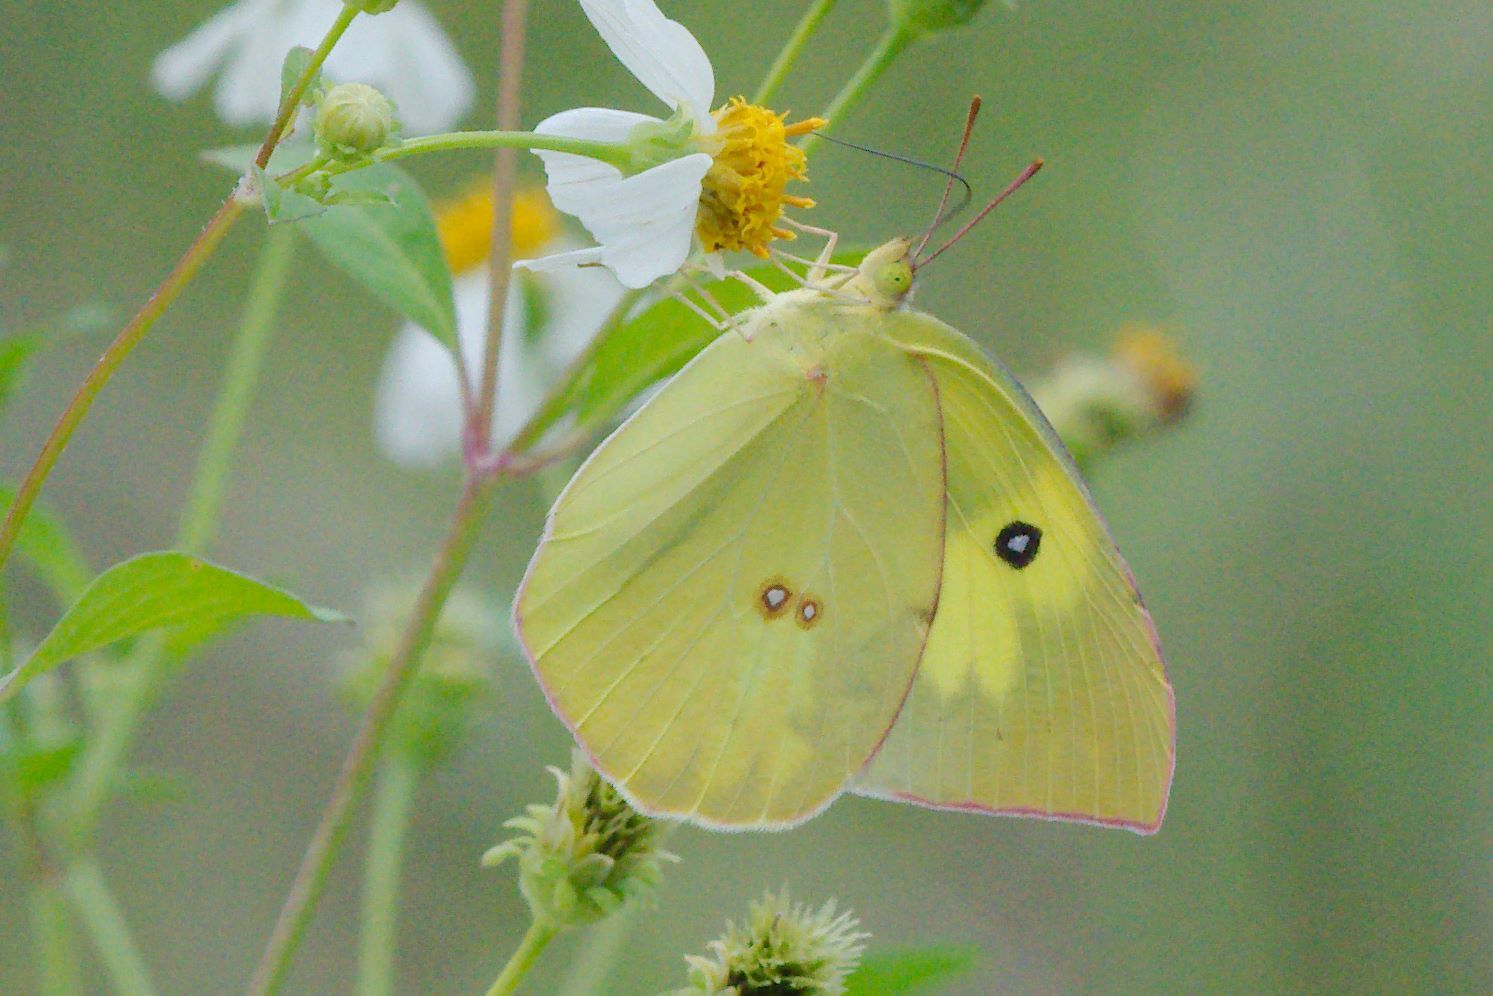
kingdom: Animalia
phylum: Arthropoda
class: Insecta
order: Lepidoptera
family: Pieridae
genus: Zerene
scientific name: Zerene cesonia
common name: Southern dogface
